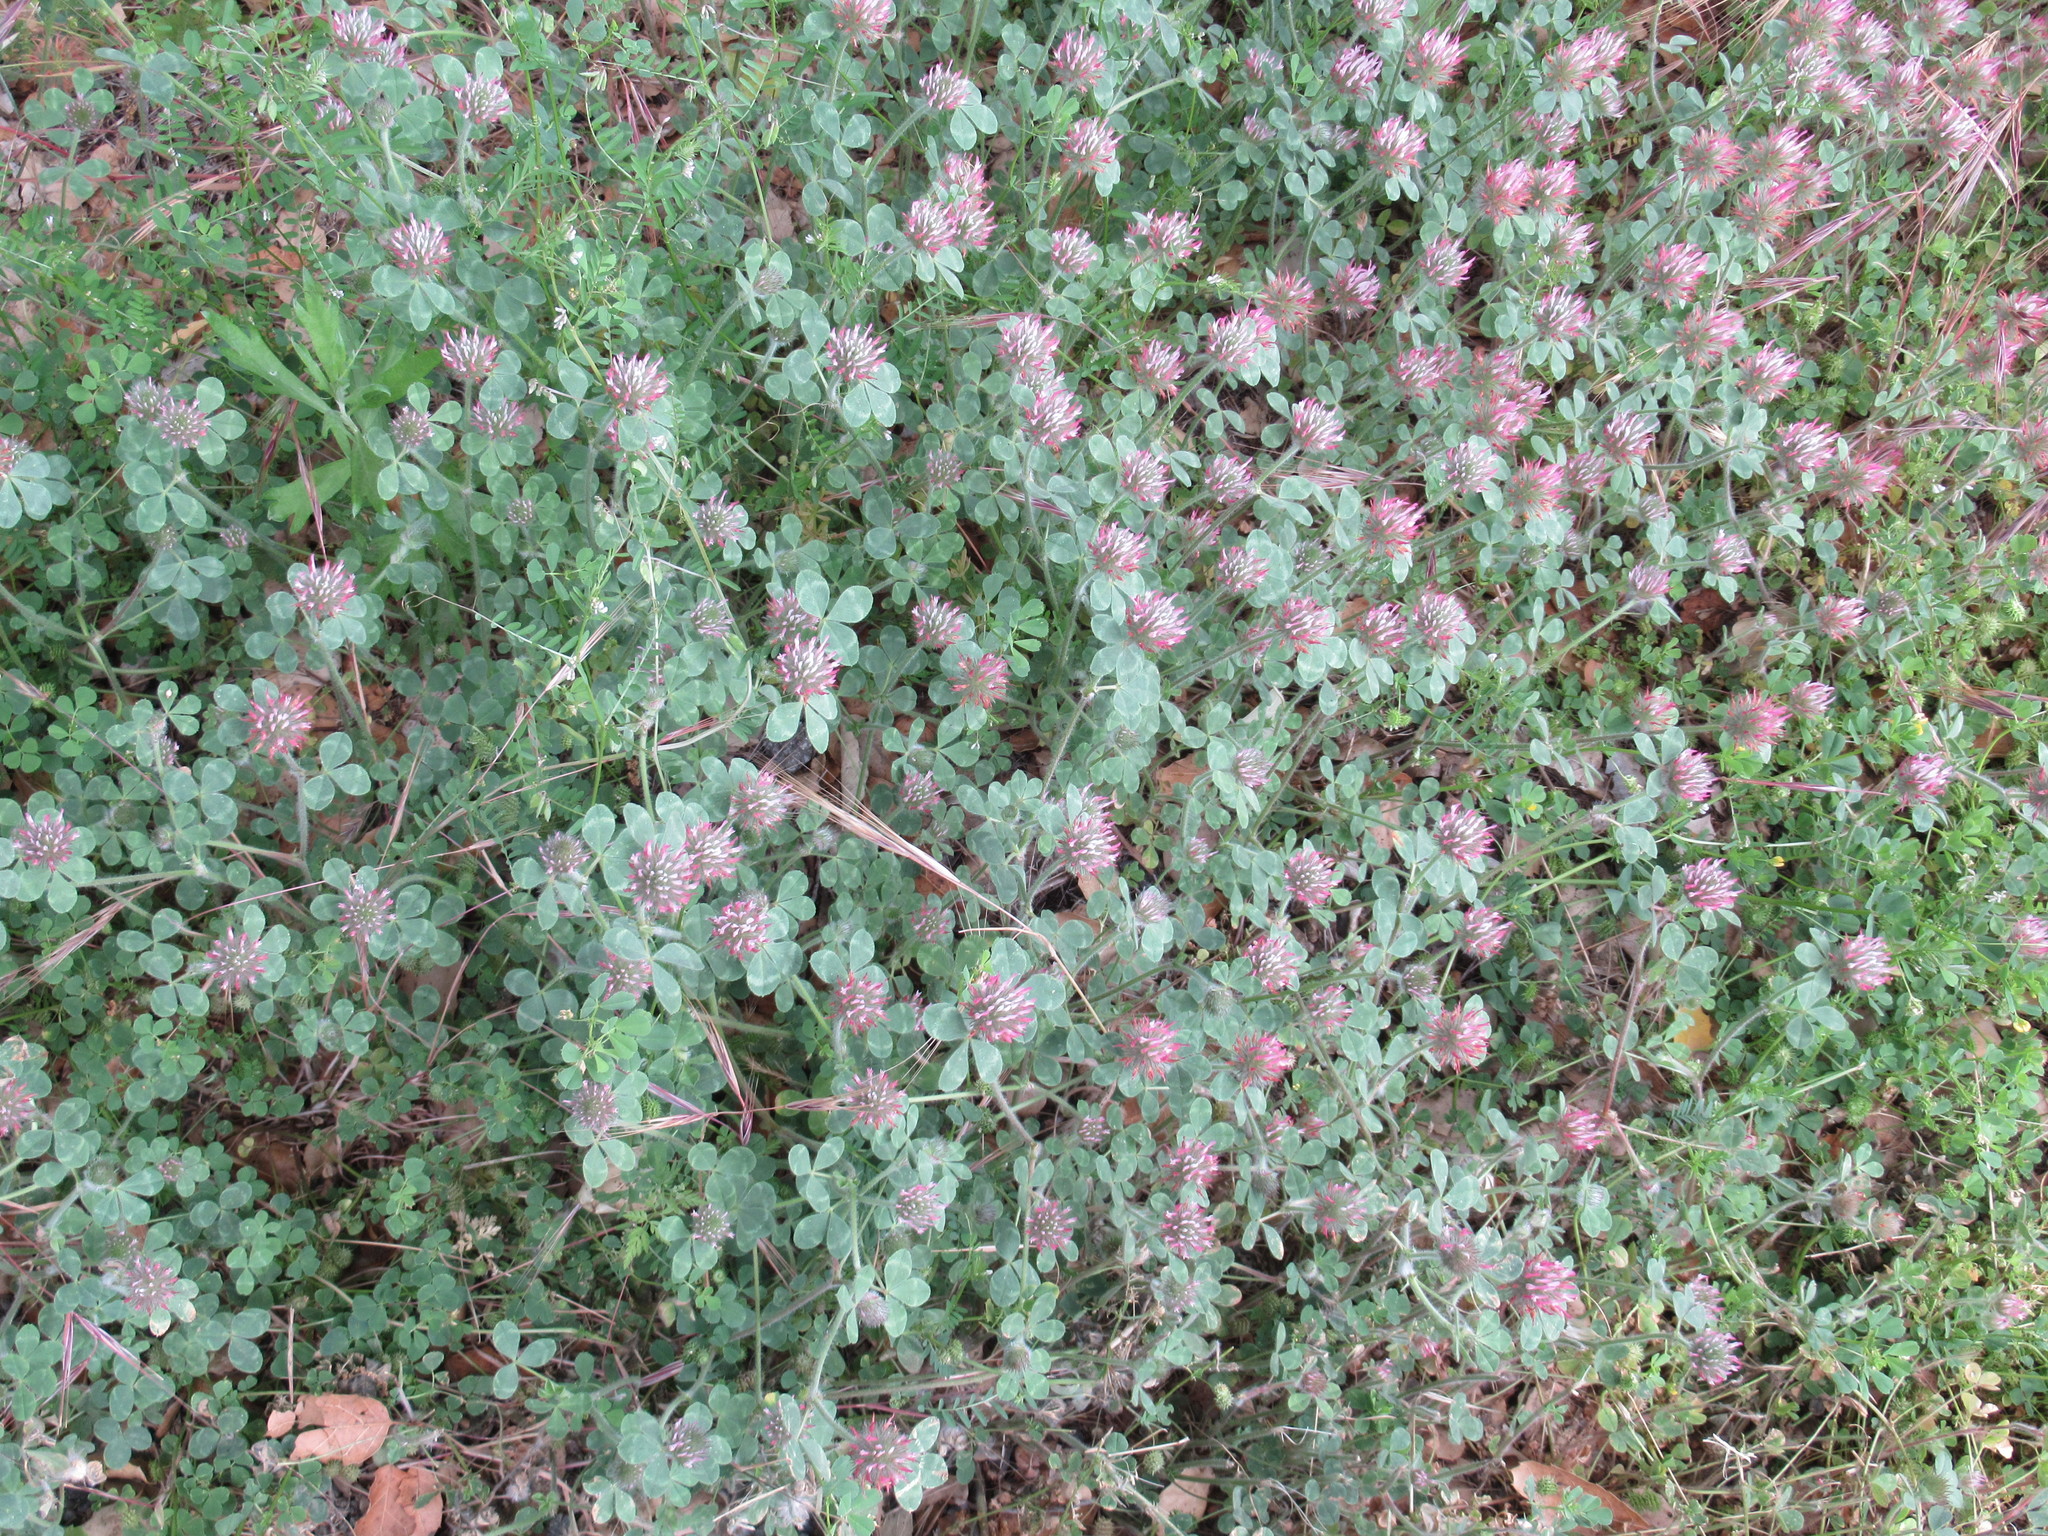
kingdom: Plantae
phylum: Tracheophyta
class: Magnoliopsida
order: Fabales
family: Fabaceae
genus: Trifolium
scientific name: Trifolium hirtum
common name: Rose clover
